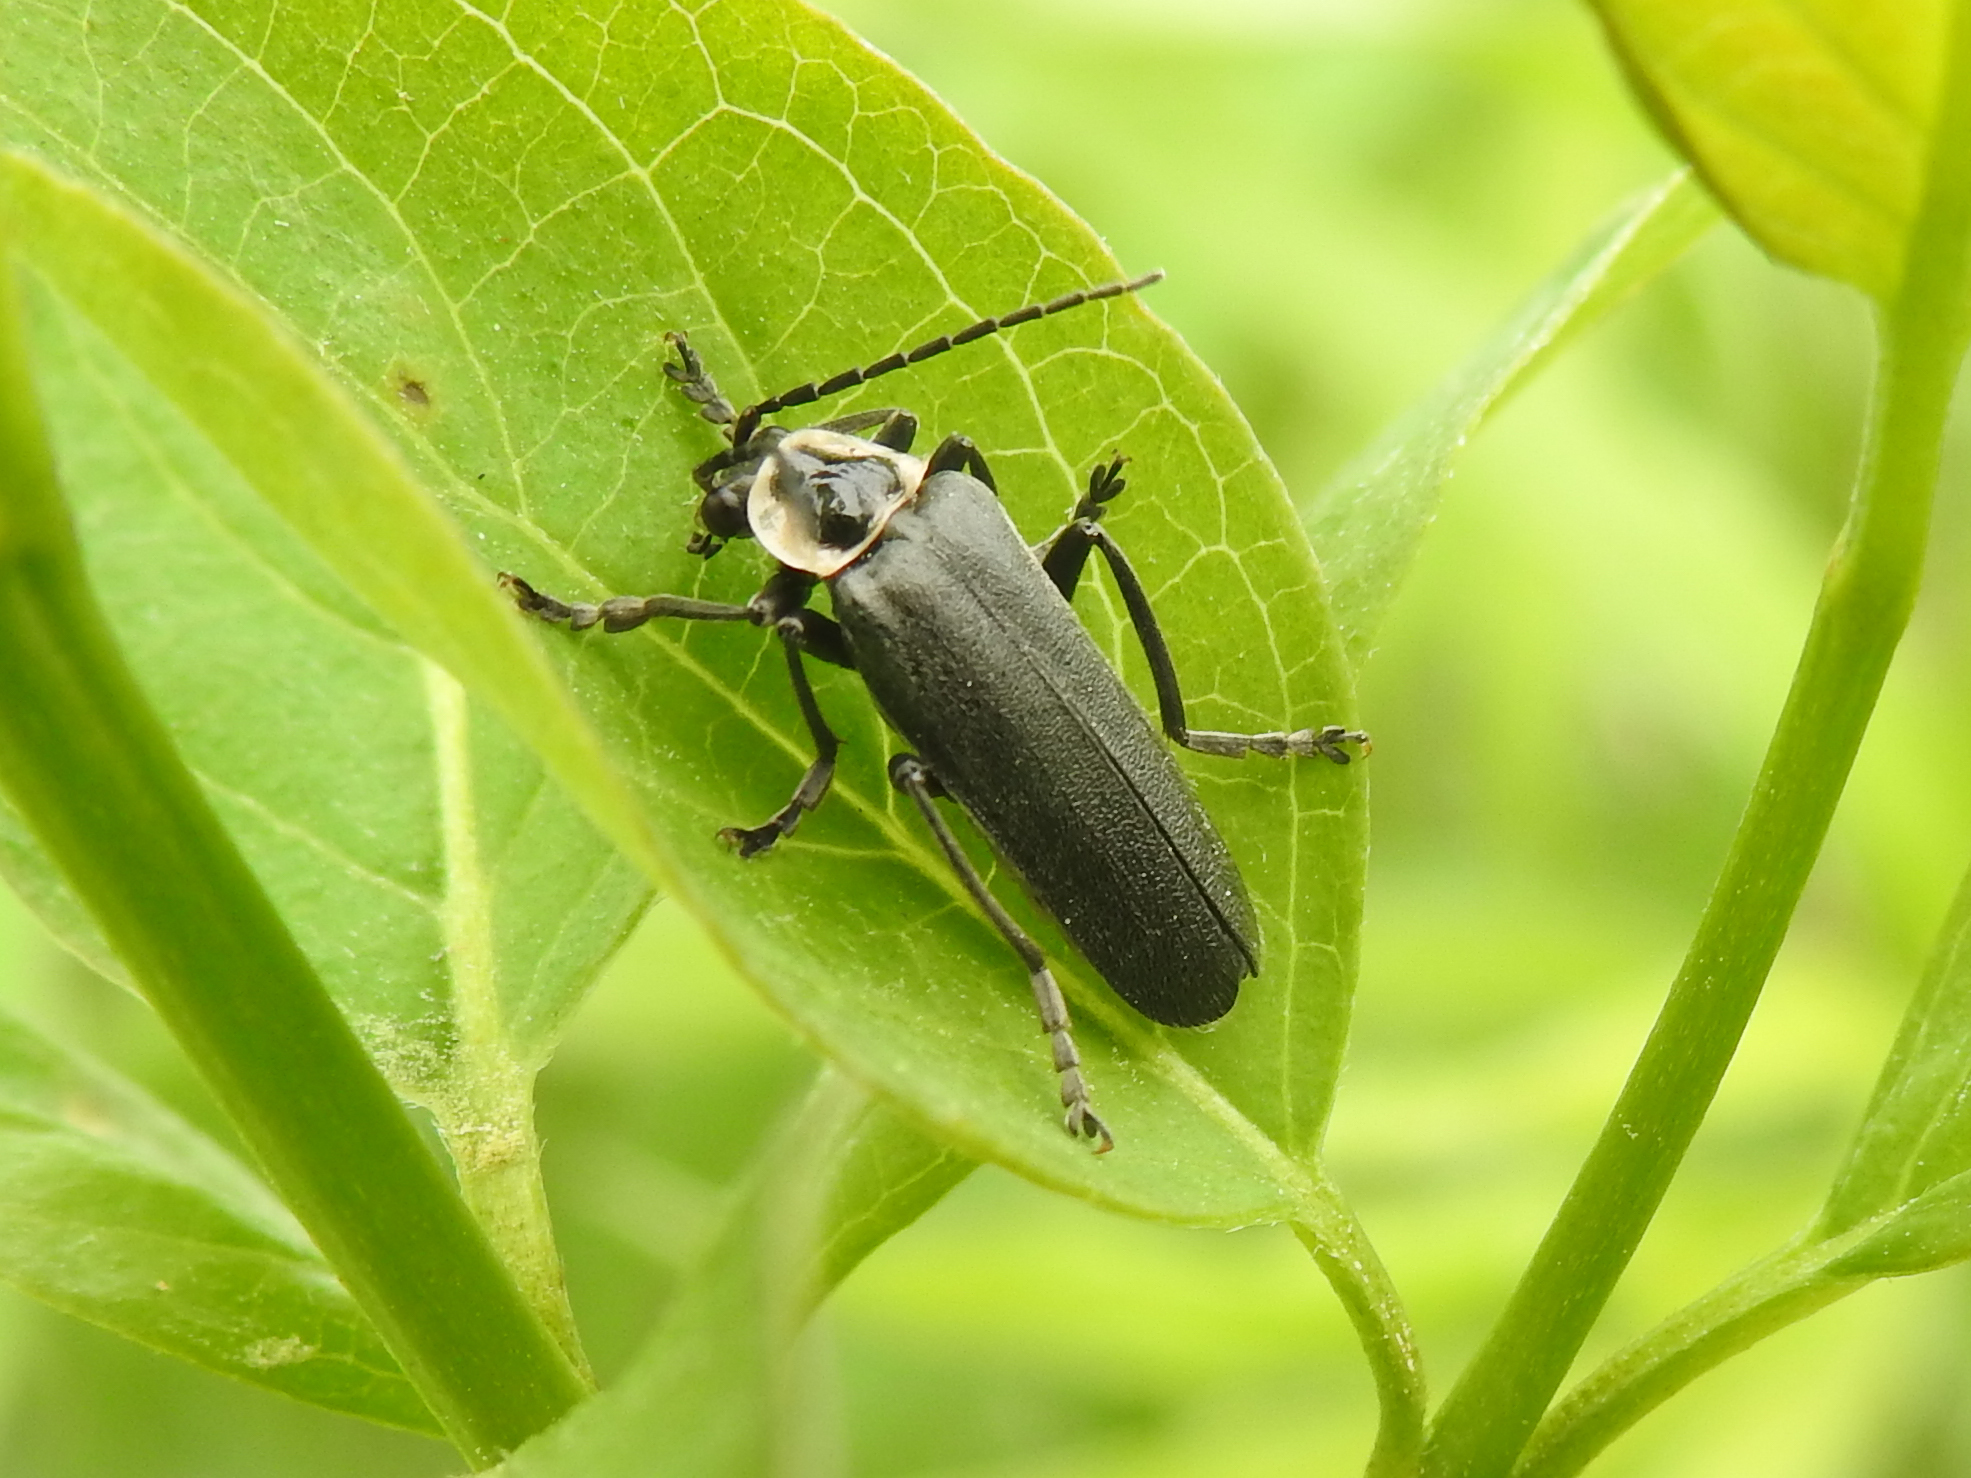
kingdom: Animalia
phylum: Arthropoda
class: Insecta
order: Coleoptera
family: Cantharidae
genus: Atalantycha
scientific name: Atalantycha neglecta
